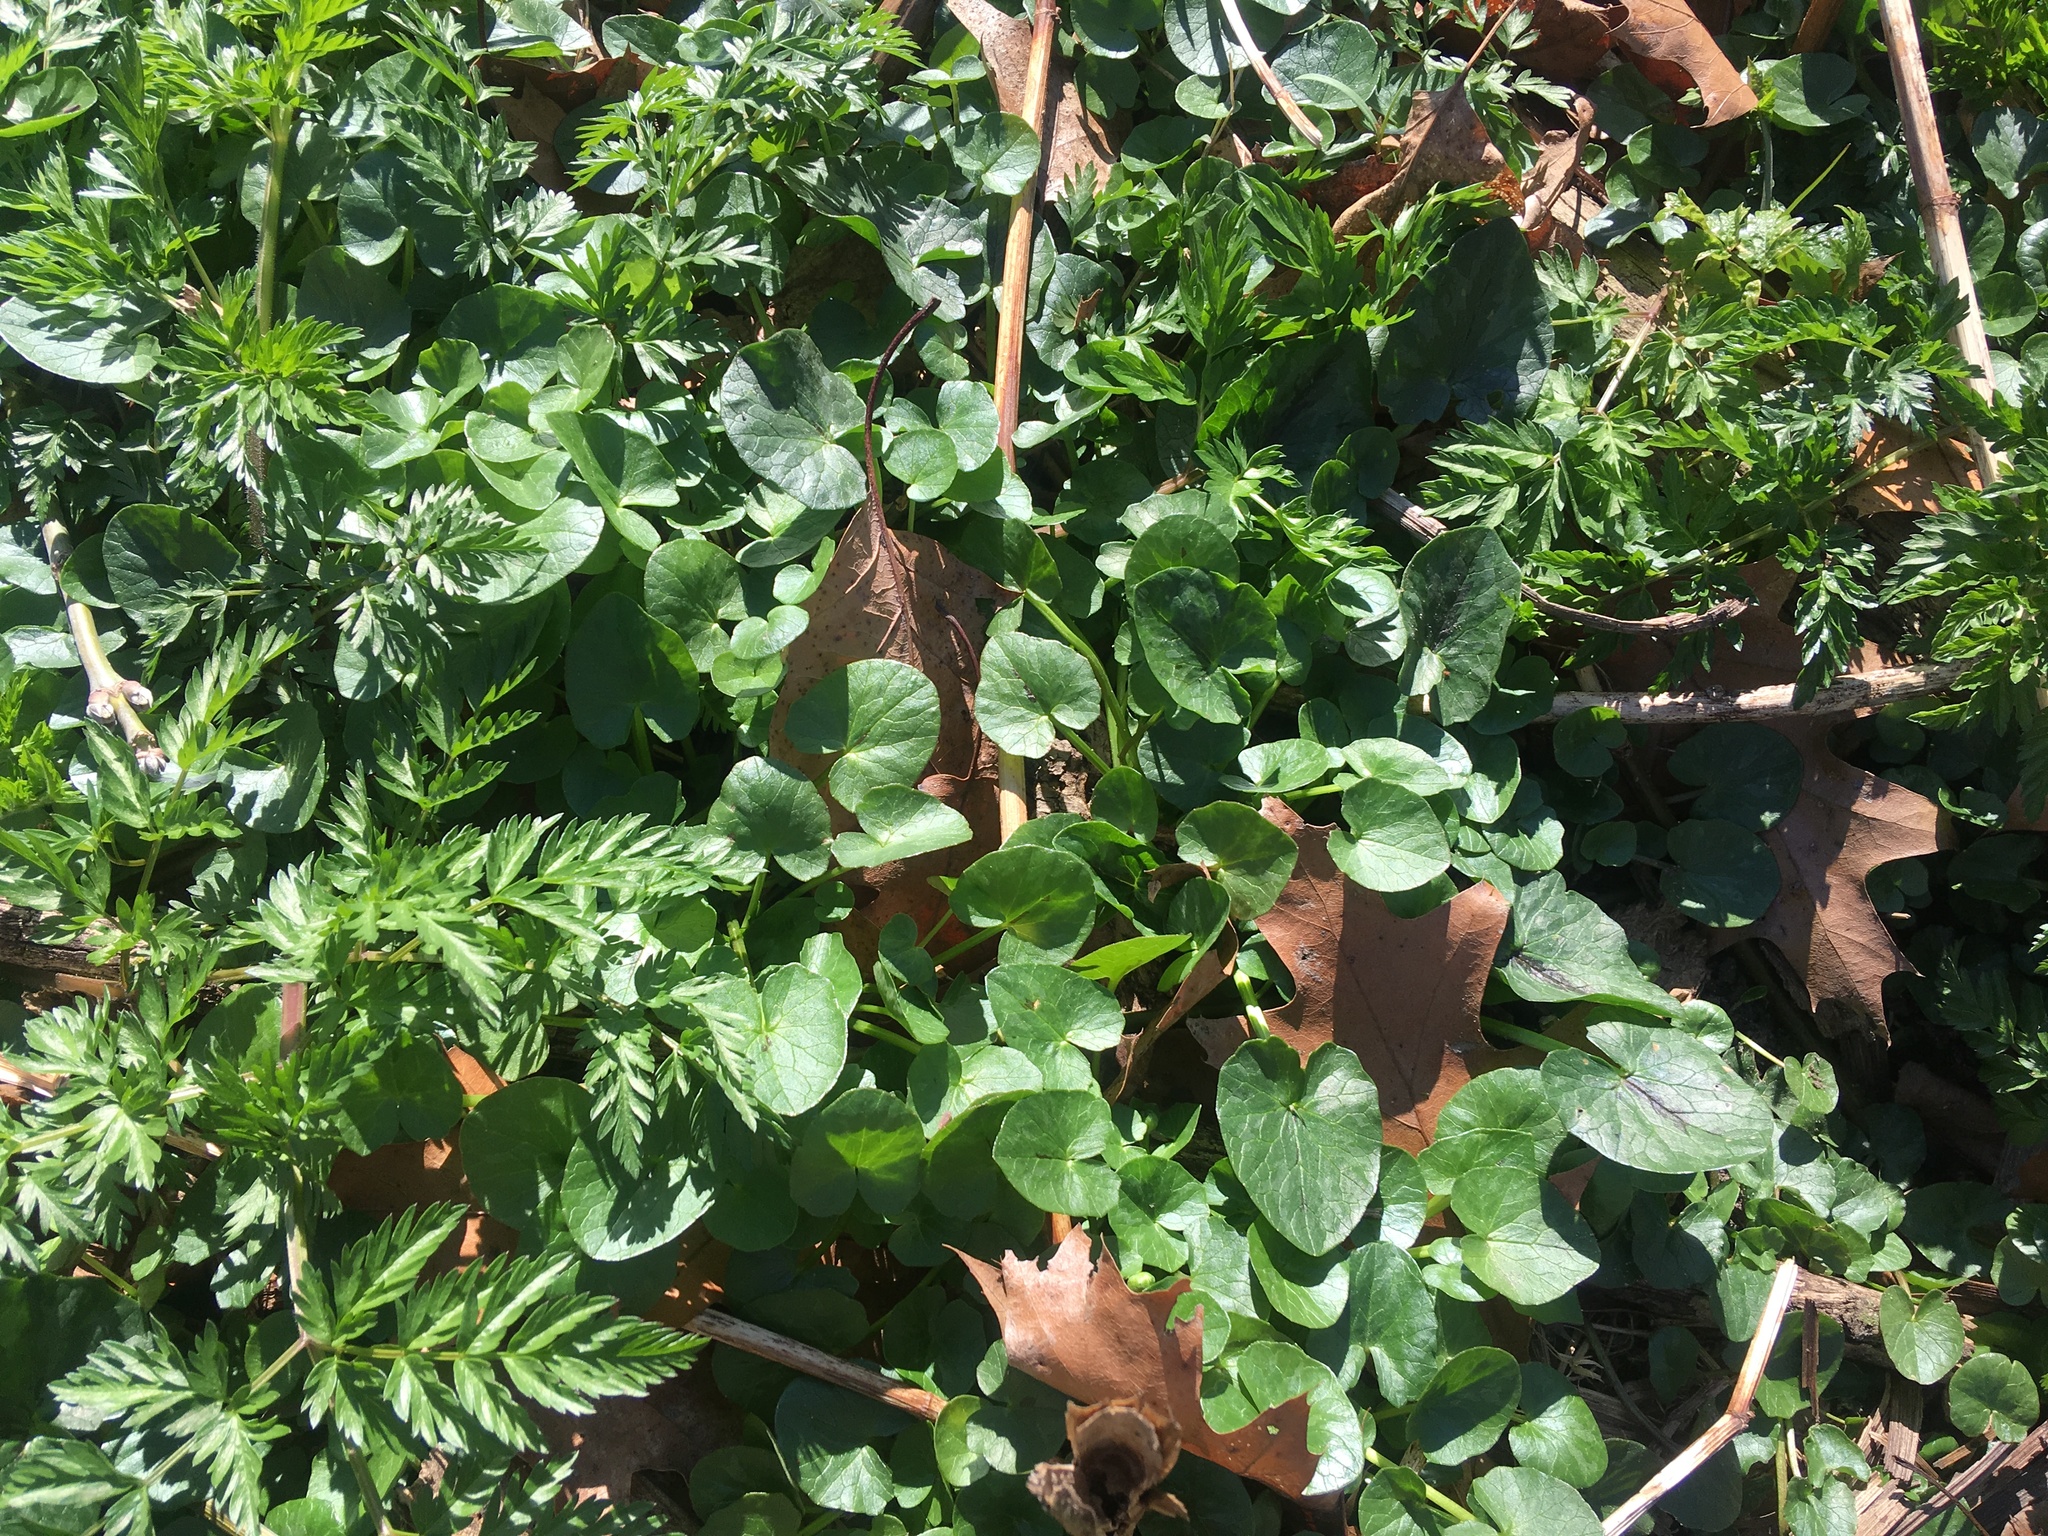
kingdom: Plantae
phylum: Tracheophyta
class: Magnoliopsida
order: Ranunculales
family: Ranunculaceae
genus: Ficaria
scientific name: Ficaria verna
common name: Lesser celandine
